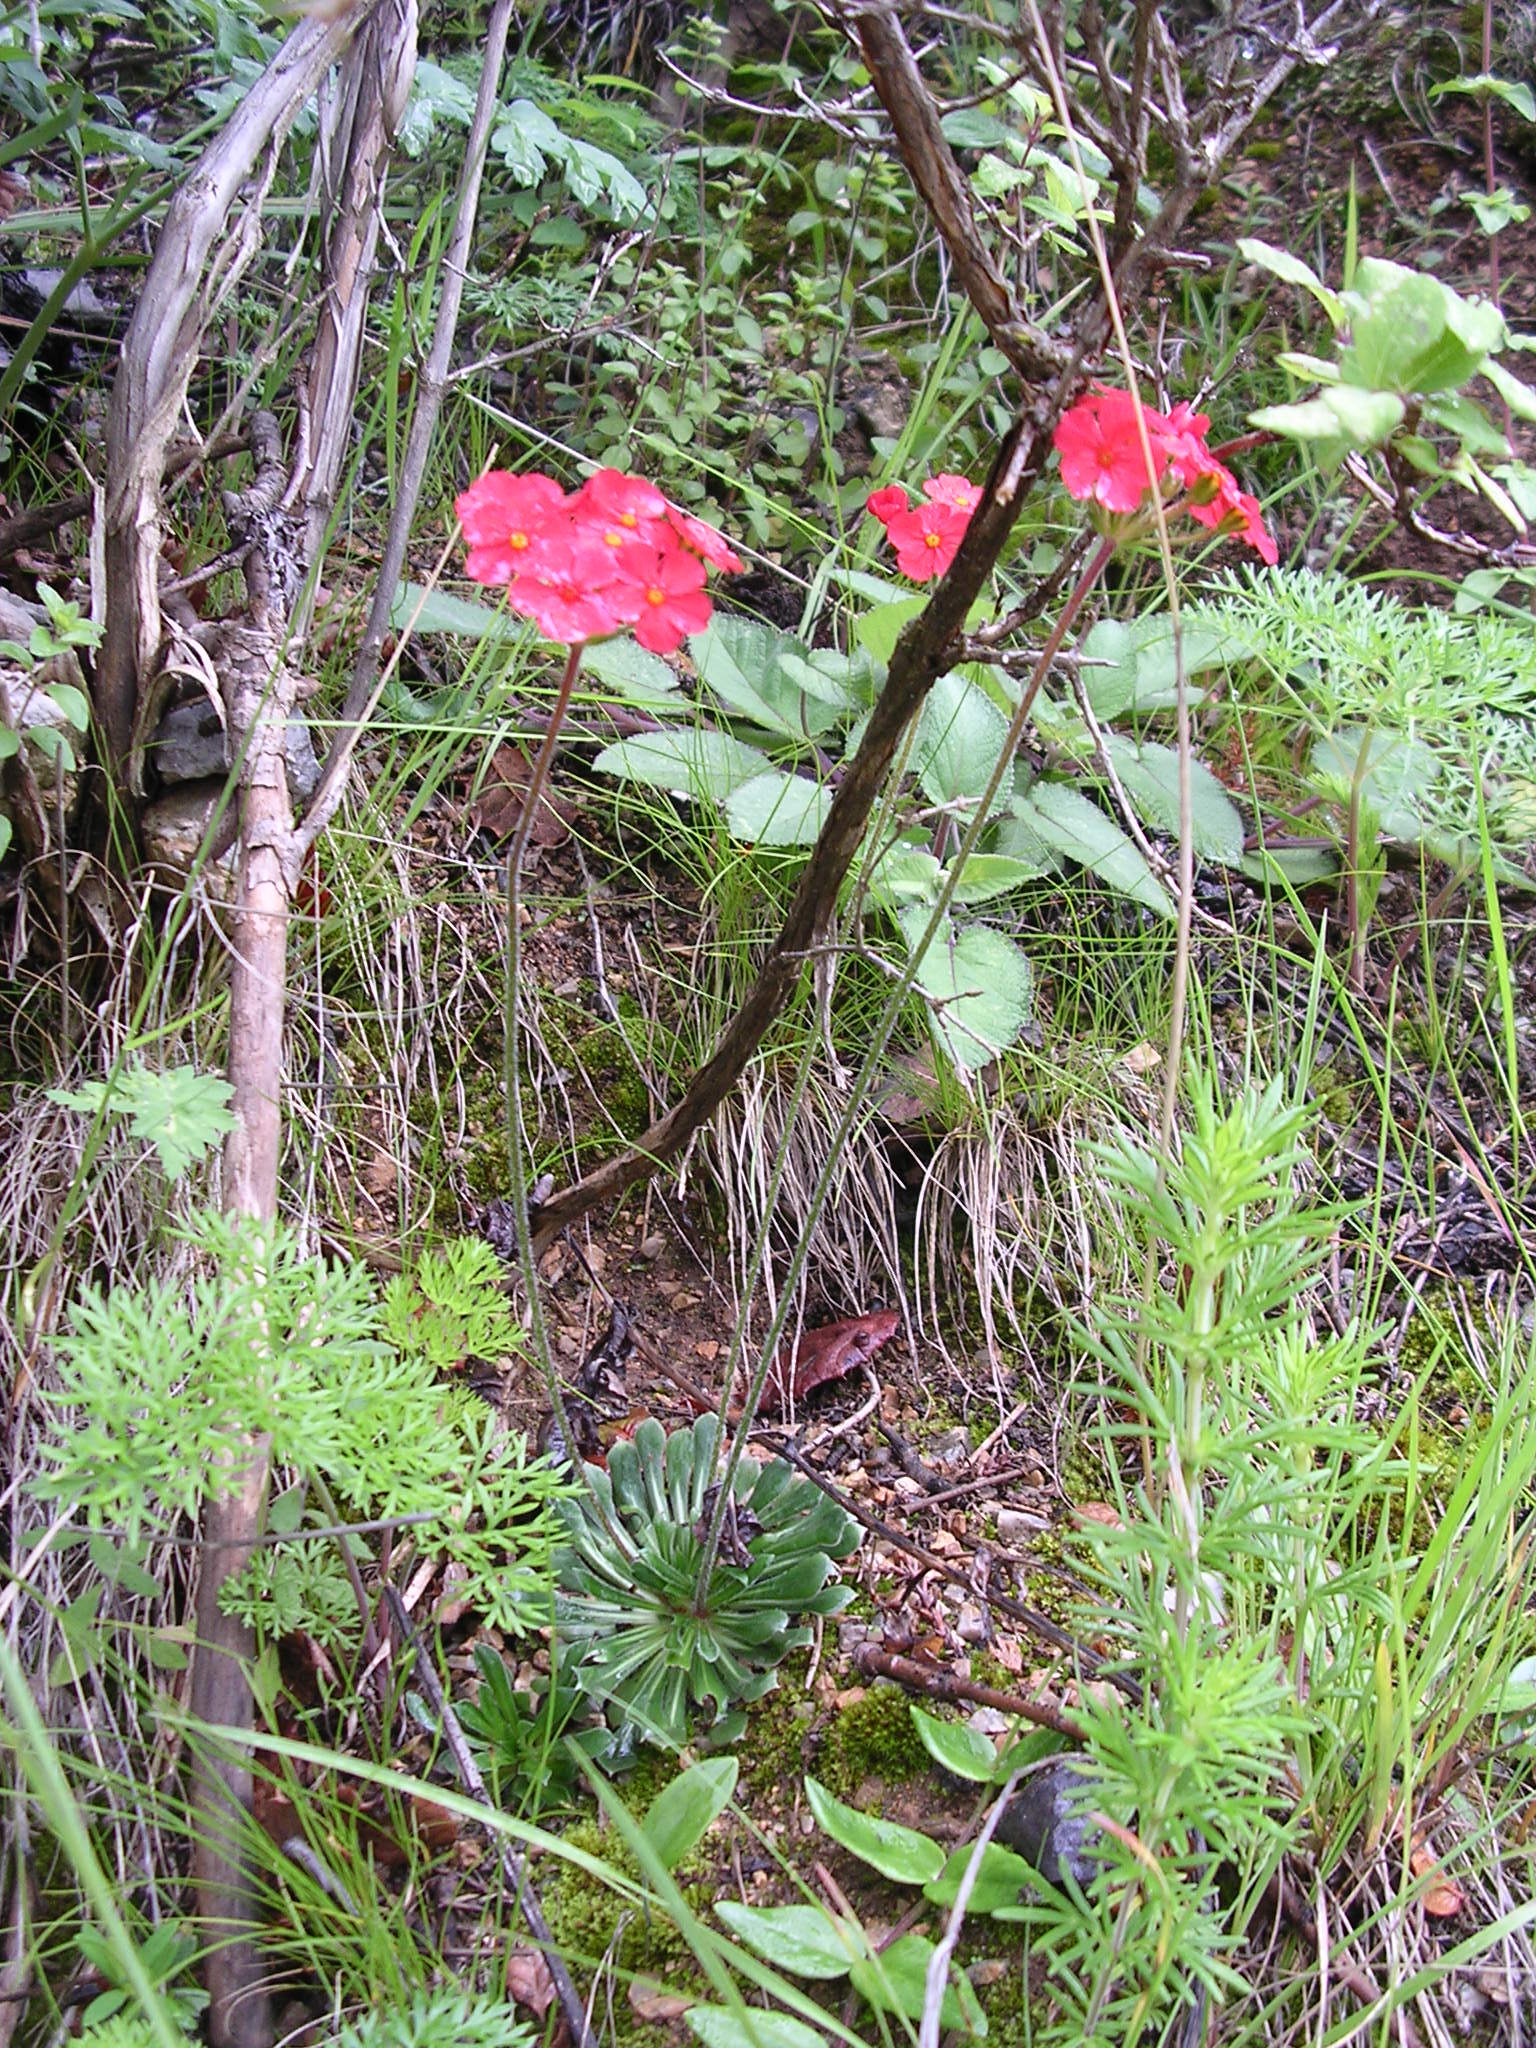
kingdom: Plantae
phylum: Tracheophyta
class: Magnoliopsida
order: Ericales
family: Primulaceae
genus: Androsace
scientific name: Androsace coccinea
